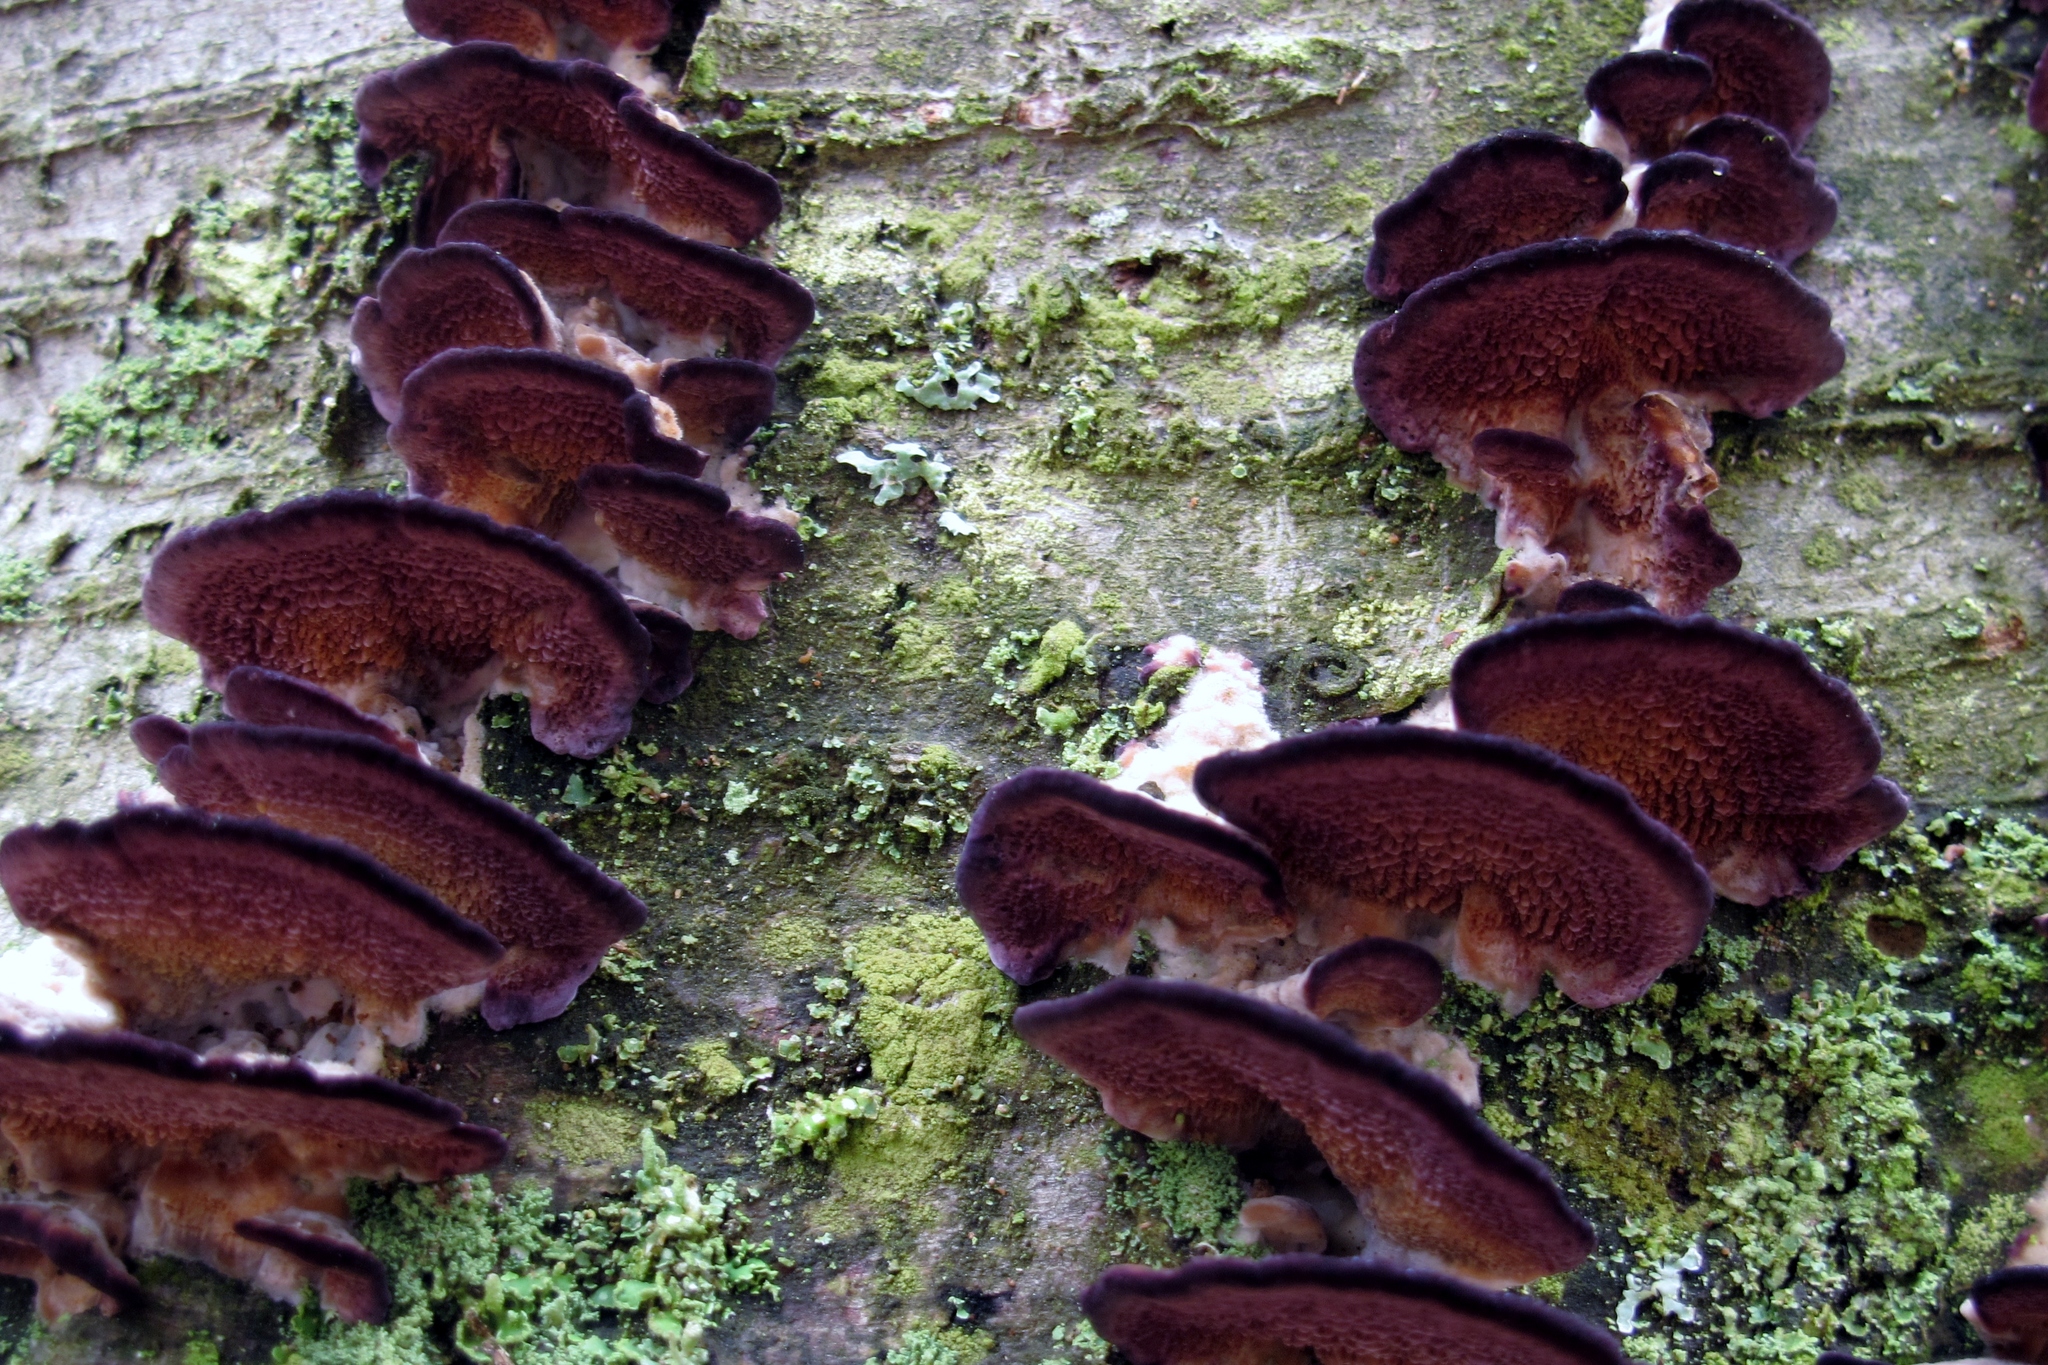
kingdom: Fungi
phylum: Basidiomycota
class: Agaricomycetes
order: Hymenochaetales
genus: Trichaptum
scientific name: Trichaptum biforme
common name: Violet-toothed polypore
